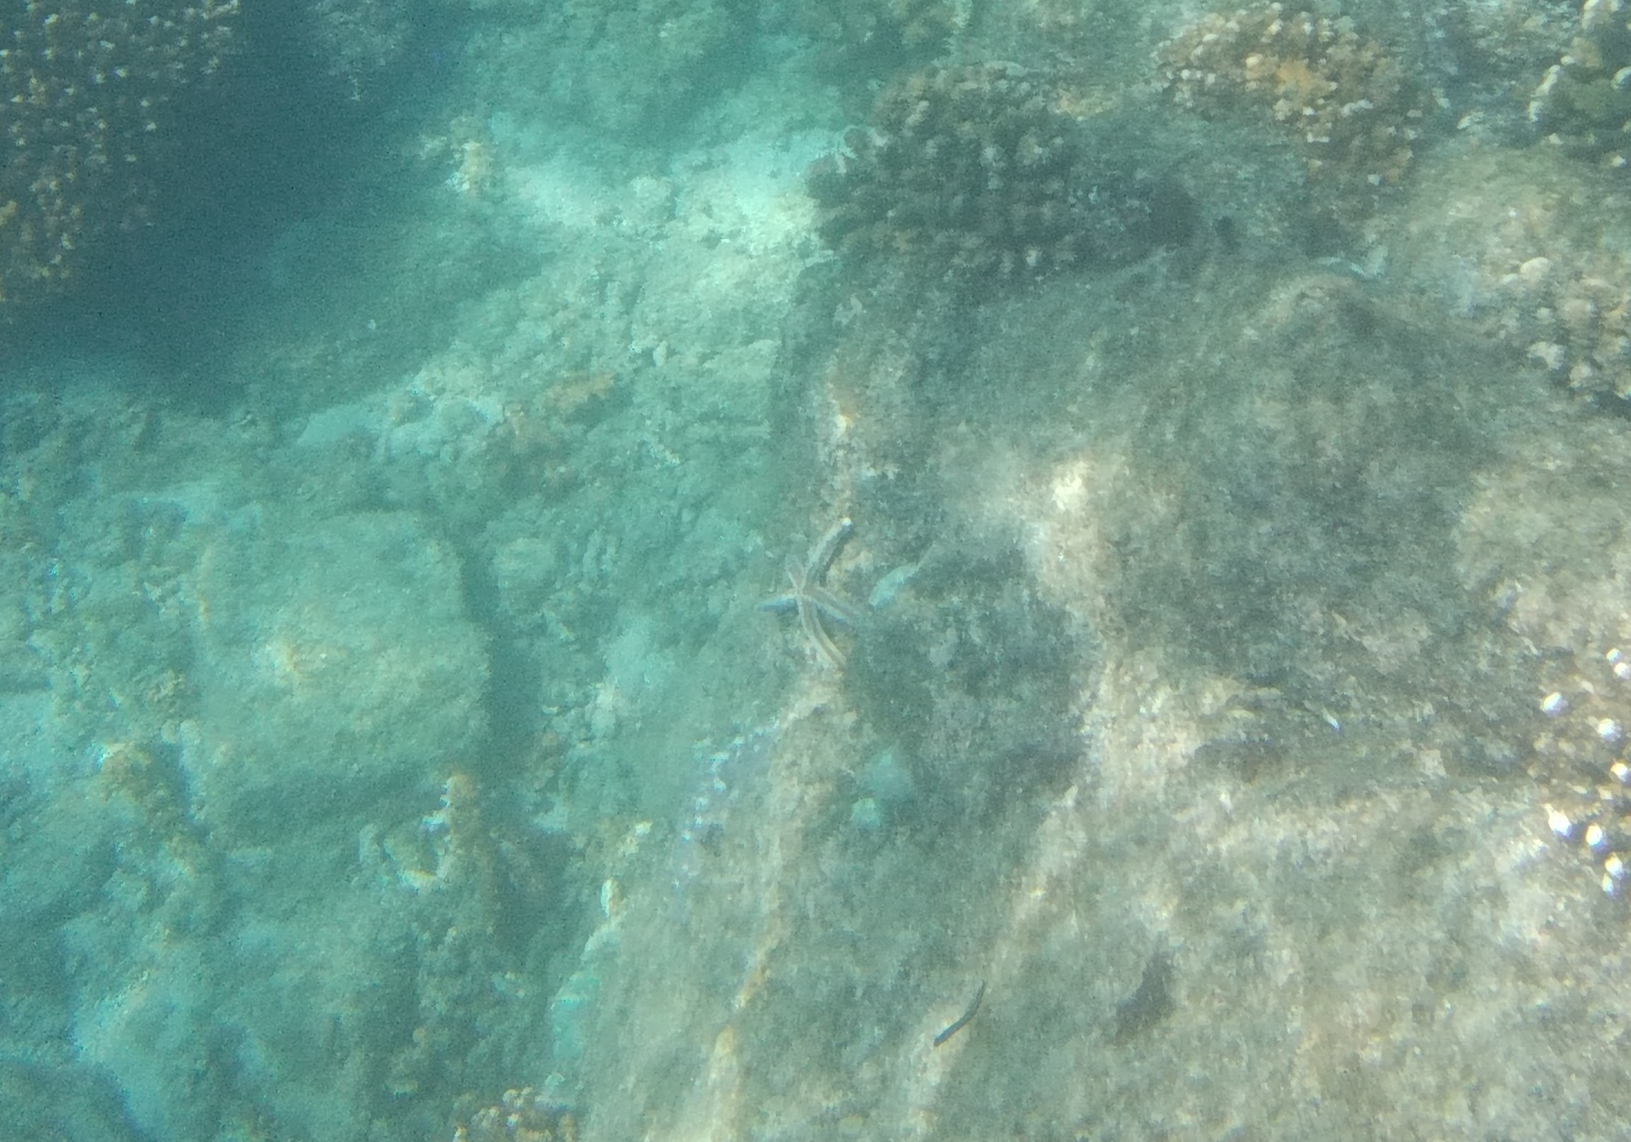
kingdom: Animalia
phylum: Echinodermata
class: Asteroidea
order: Valvatida
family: Ophidiasteridae
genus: Phataria
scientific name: Phataria unifascialis
